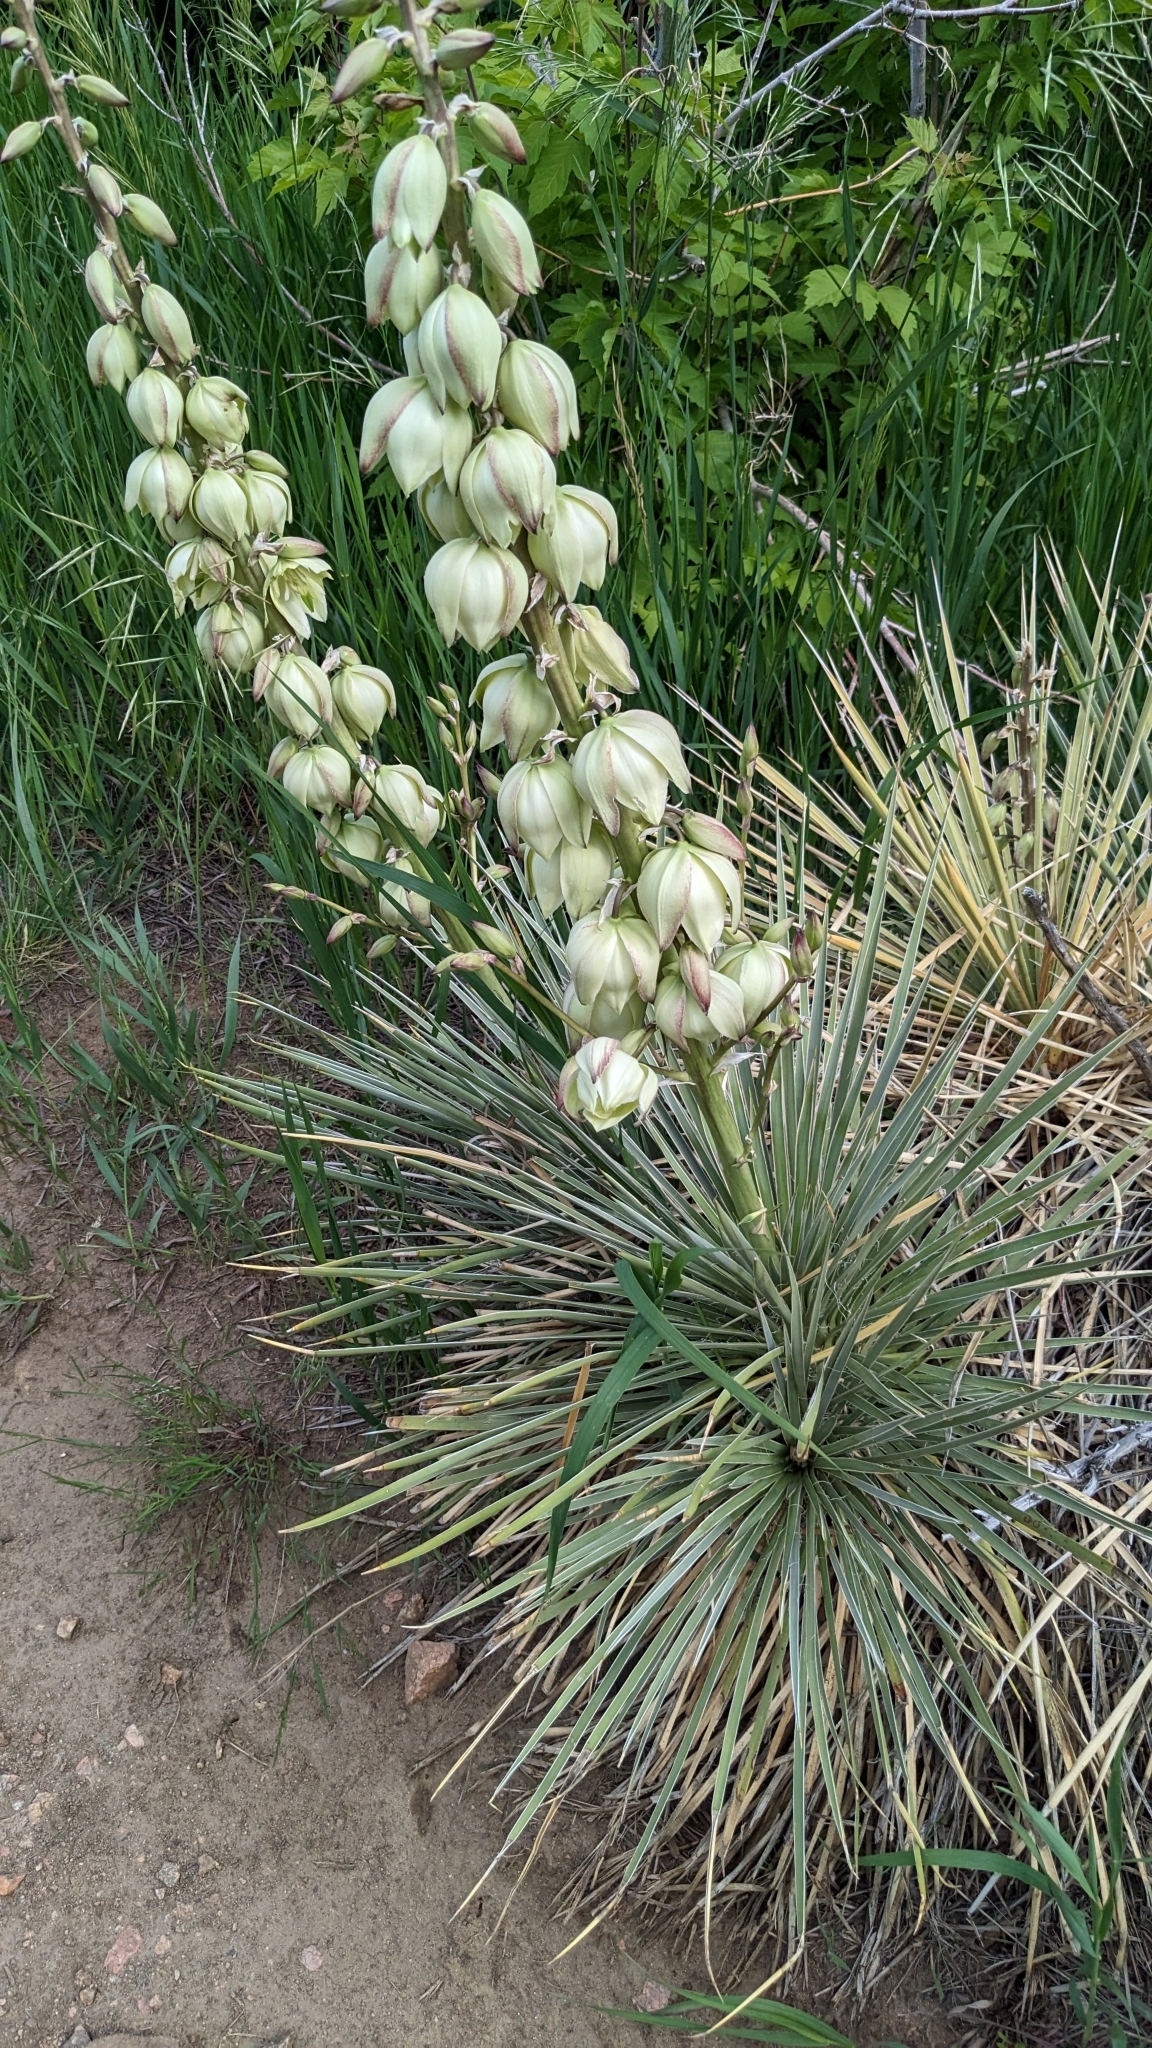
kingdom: Plantae
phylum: Tracheophyta
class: Liliopsida
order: Asparagales
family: Asparagaceae
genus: Yucca
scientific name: Yucca glauca
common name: Great plains yucca
